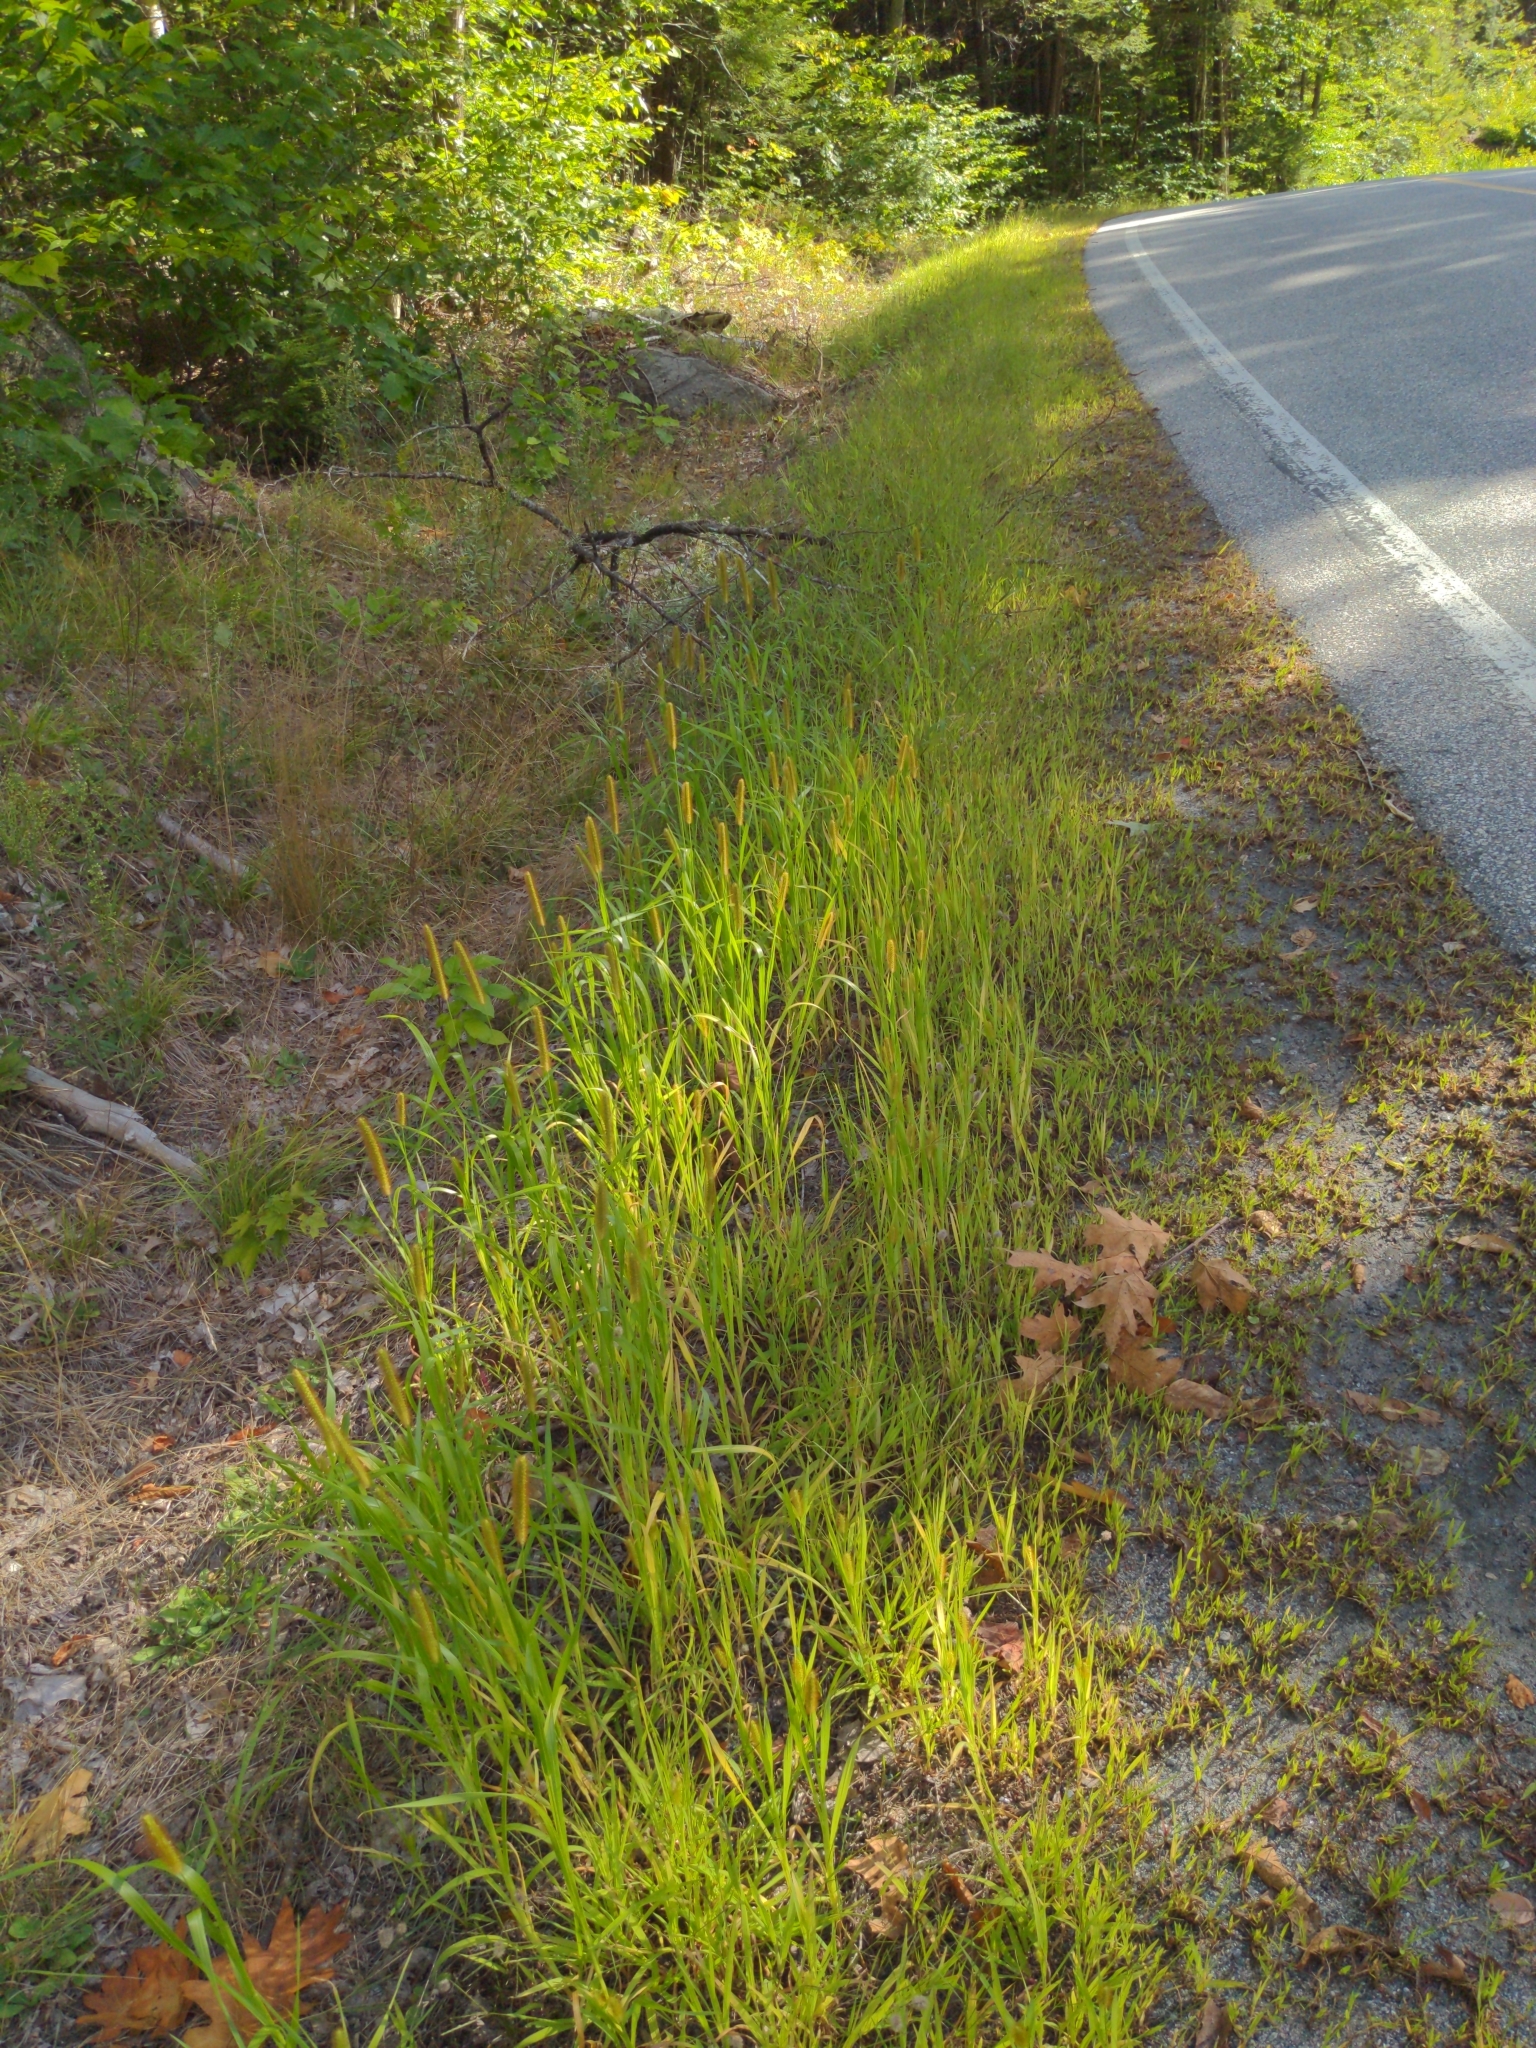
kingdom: Plantae
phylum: Tracheophyta
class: Liliopsida
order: Poales
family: Poaceae
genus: Setaria
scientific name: Setaria pumila
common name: Yellow bristle-grass
